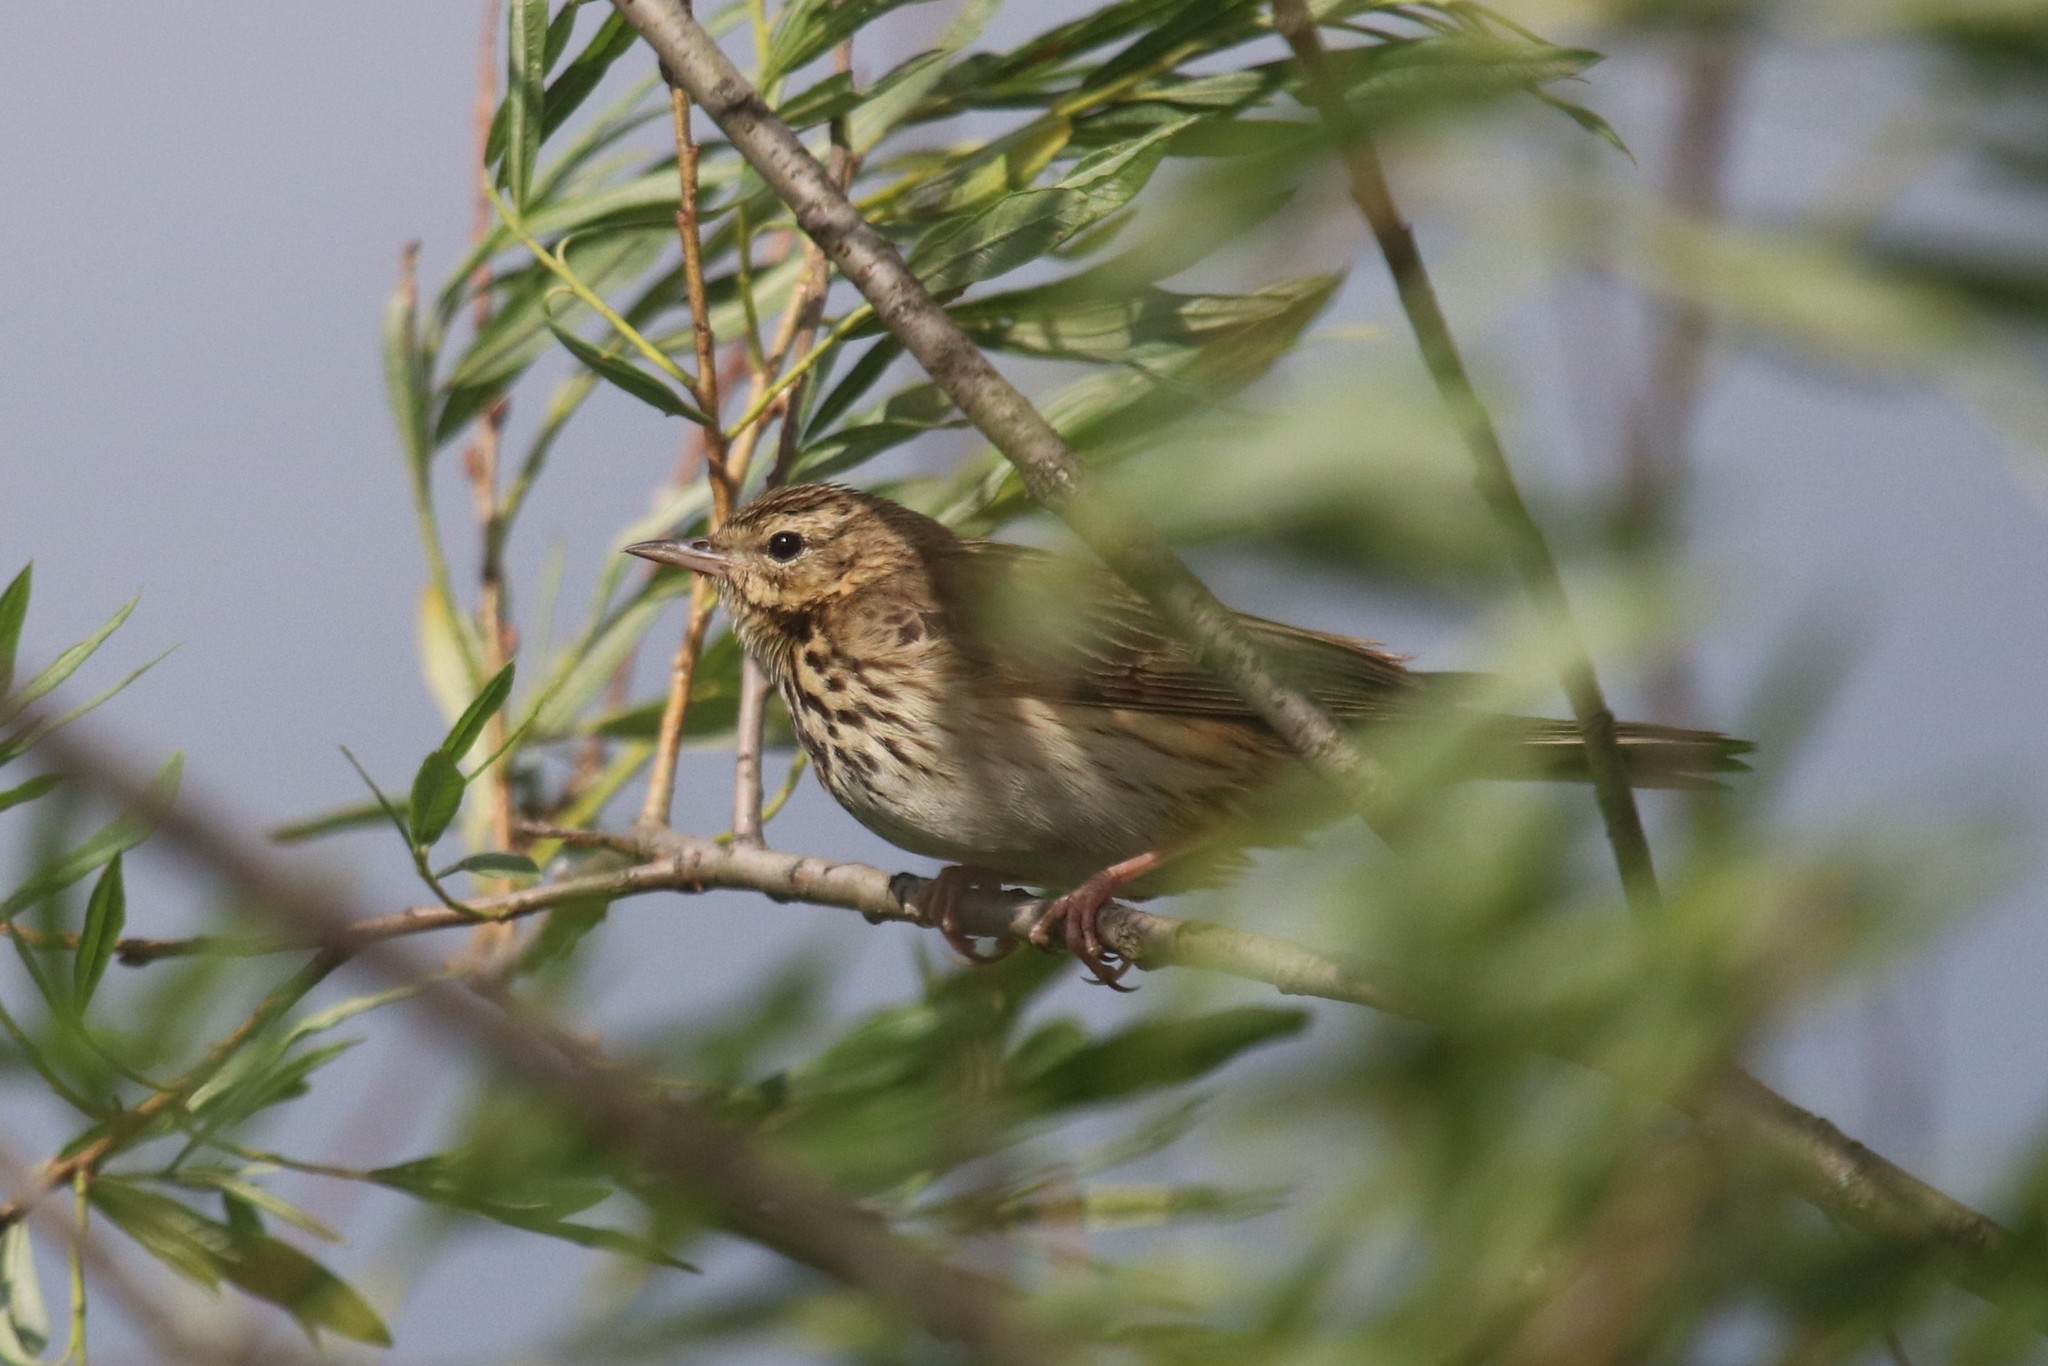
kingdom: Animalia
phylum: Chordata
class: Aves
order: Passeriformes
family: Motacillidae
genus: Anthus
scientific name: Anthus trivialis
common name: Tree pipit
